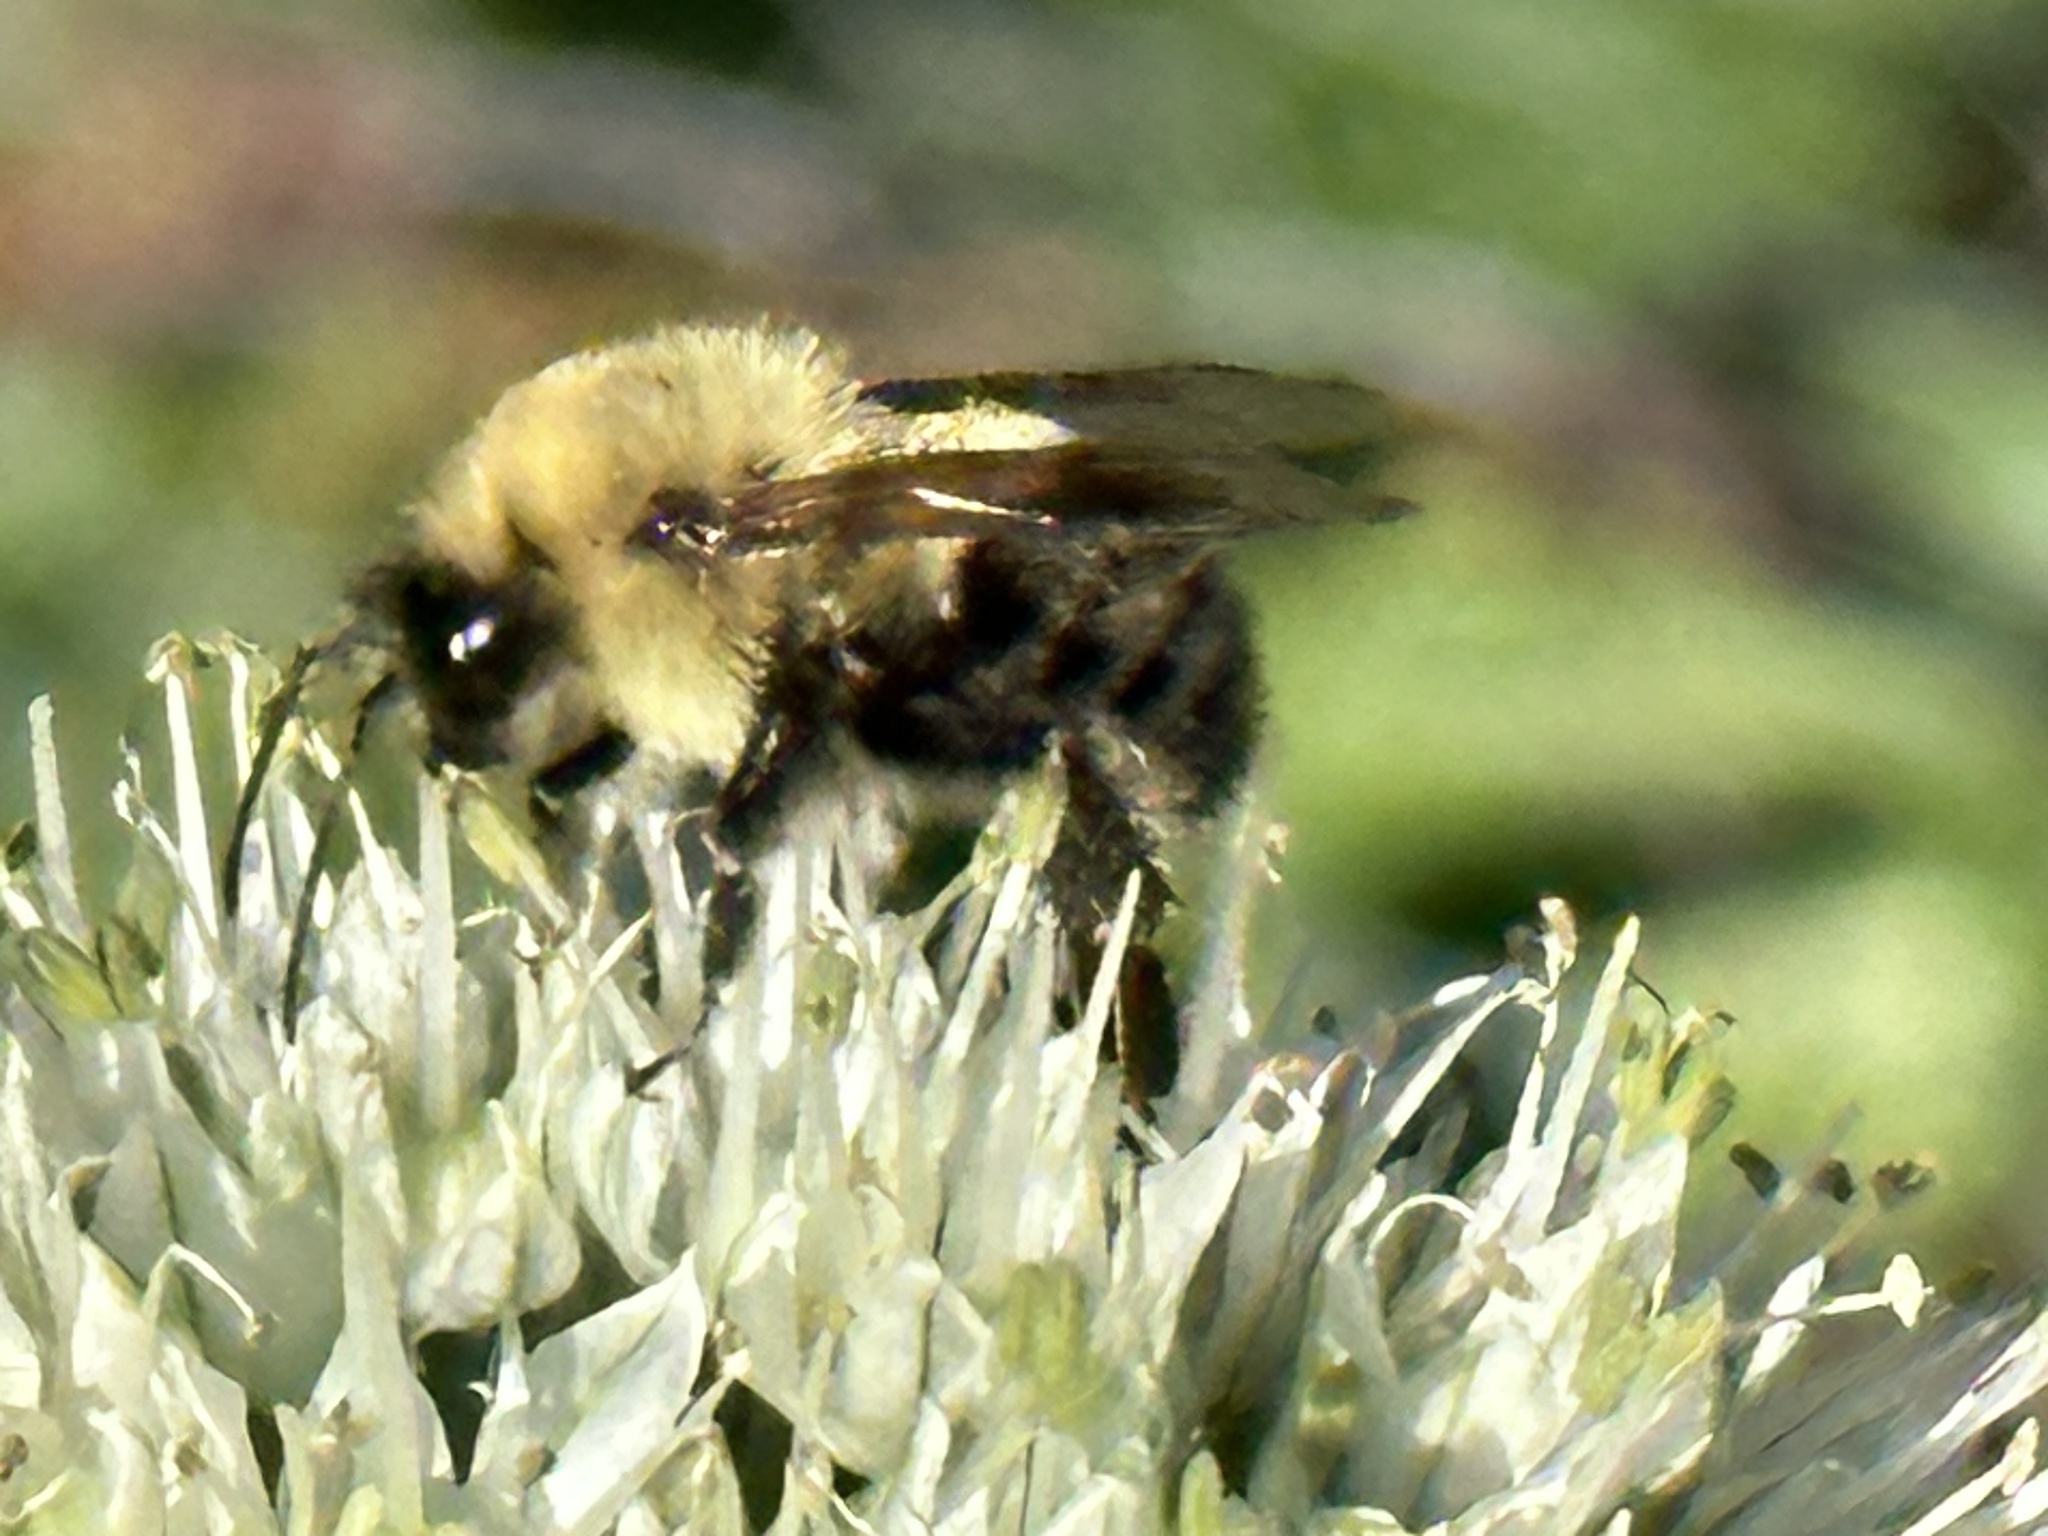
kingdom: Animalia
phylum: Arthropoda
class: Insecta
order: Hymenoptera
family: Apidae
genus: Bombus
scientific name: Bombus bimaculatus
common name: Two-spotted bumble bee
